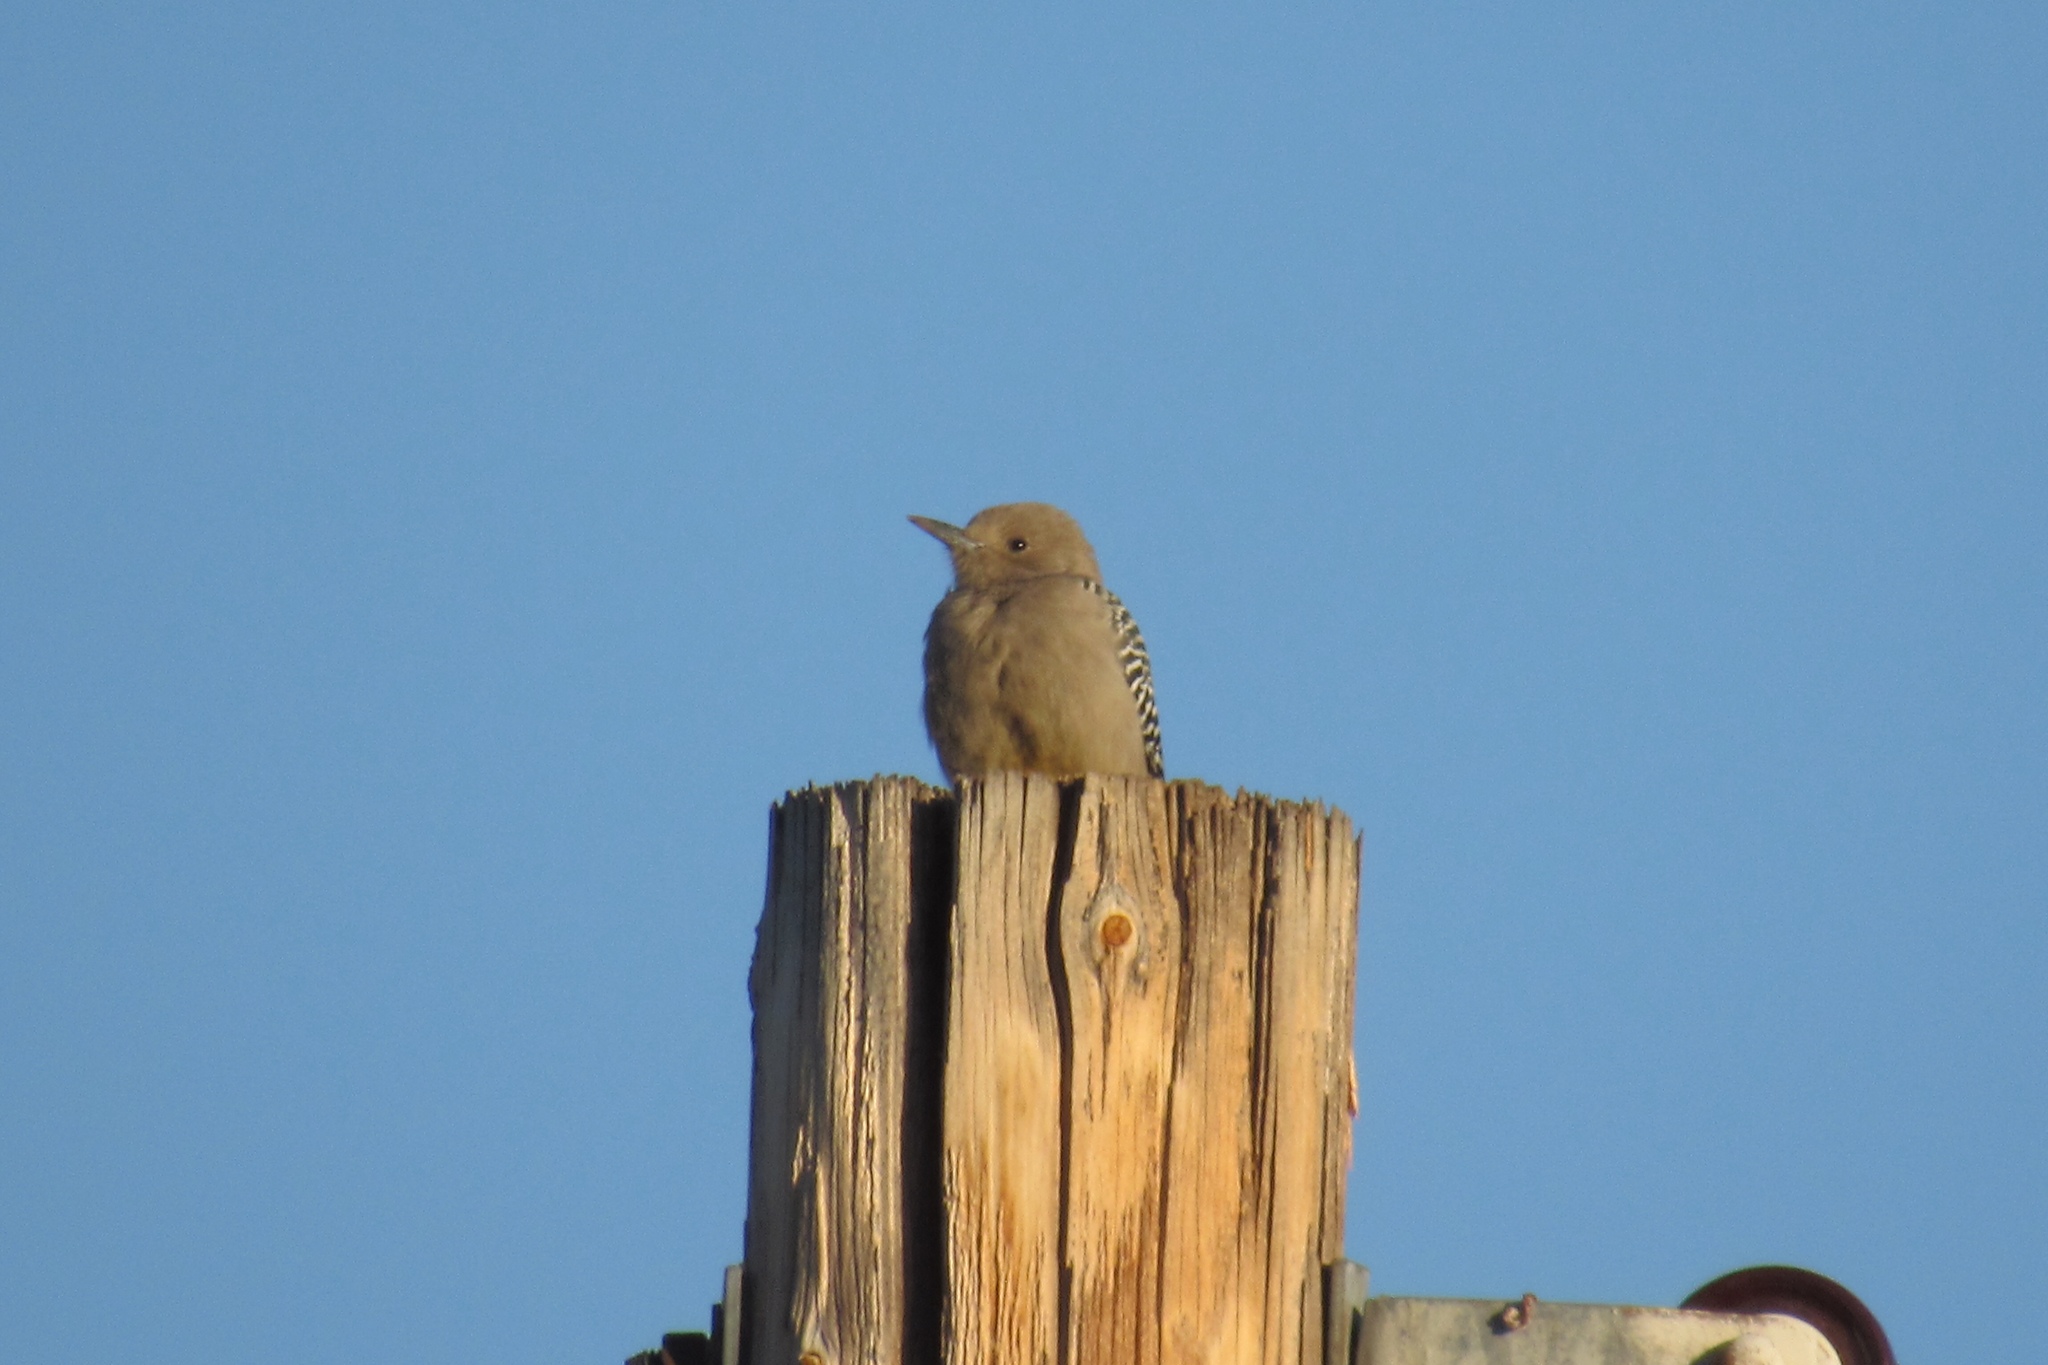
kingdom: Animalia
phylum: Chordata
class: Aves
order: Piciformes
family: Picidae
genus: Melanerpes
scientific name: Melanerpes uropygialis
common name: Gila woodpecker
